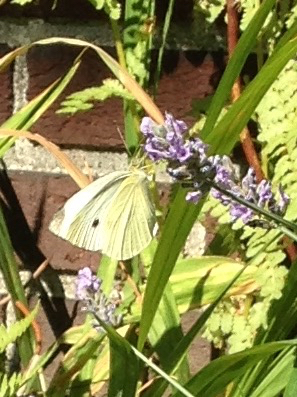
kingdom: Animalia
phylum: Arthropoda
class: Insecta
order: Lepidoptera
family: Pieridae
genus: Pieris
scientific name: Pieris rapae
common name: Small white
